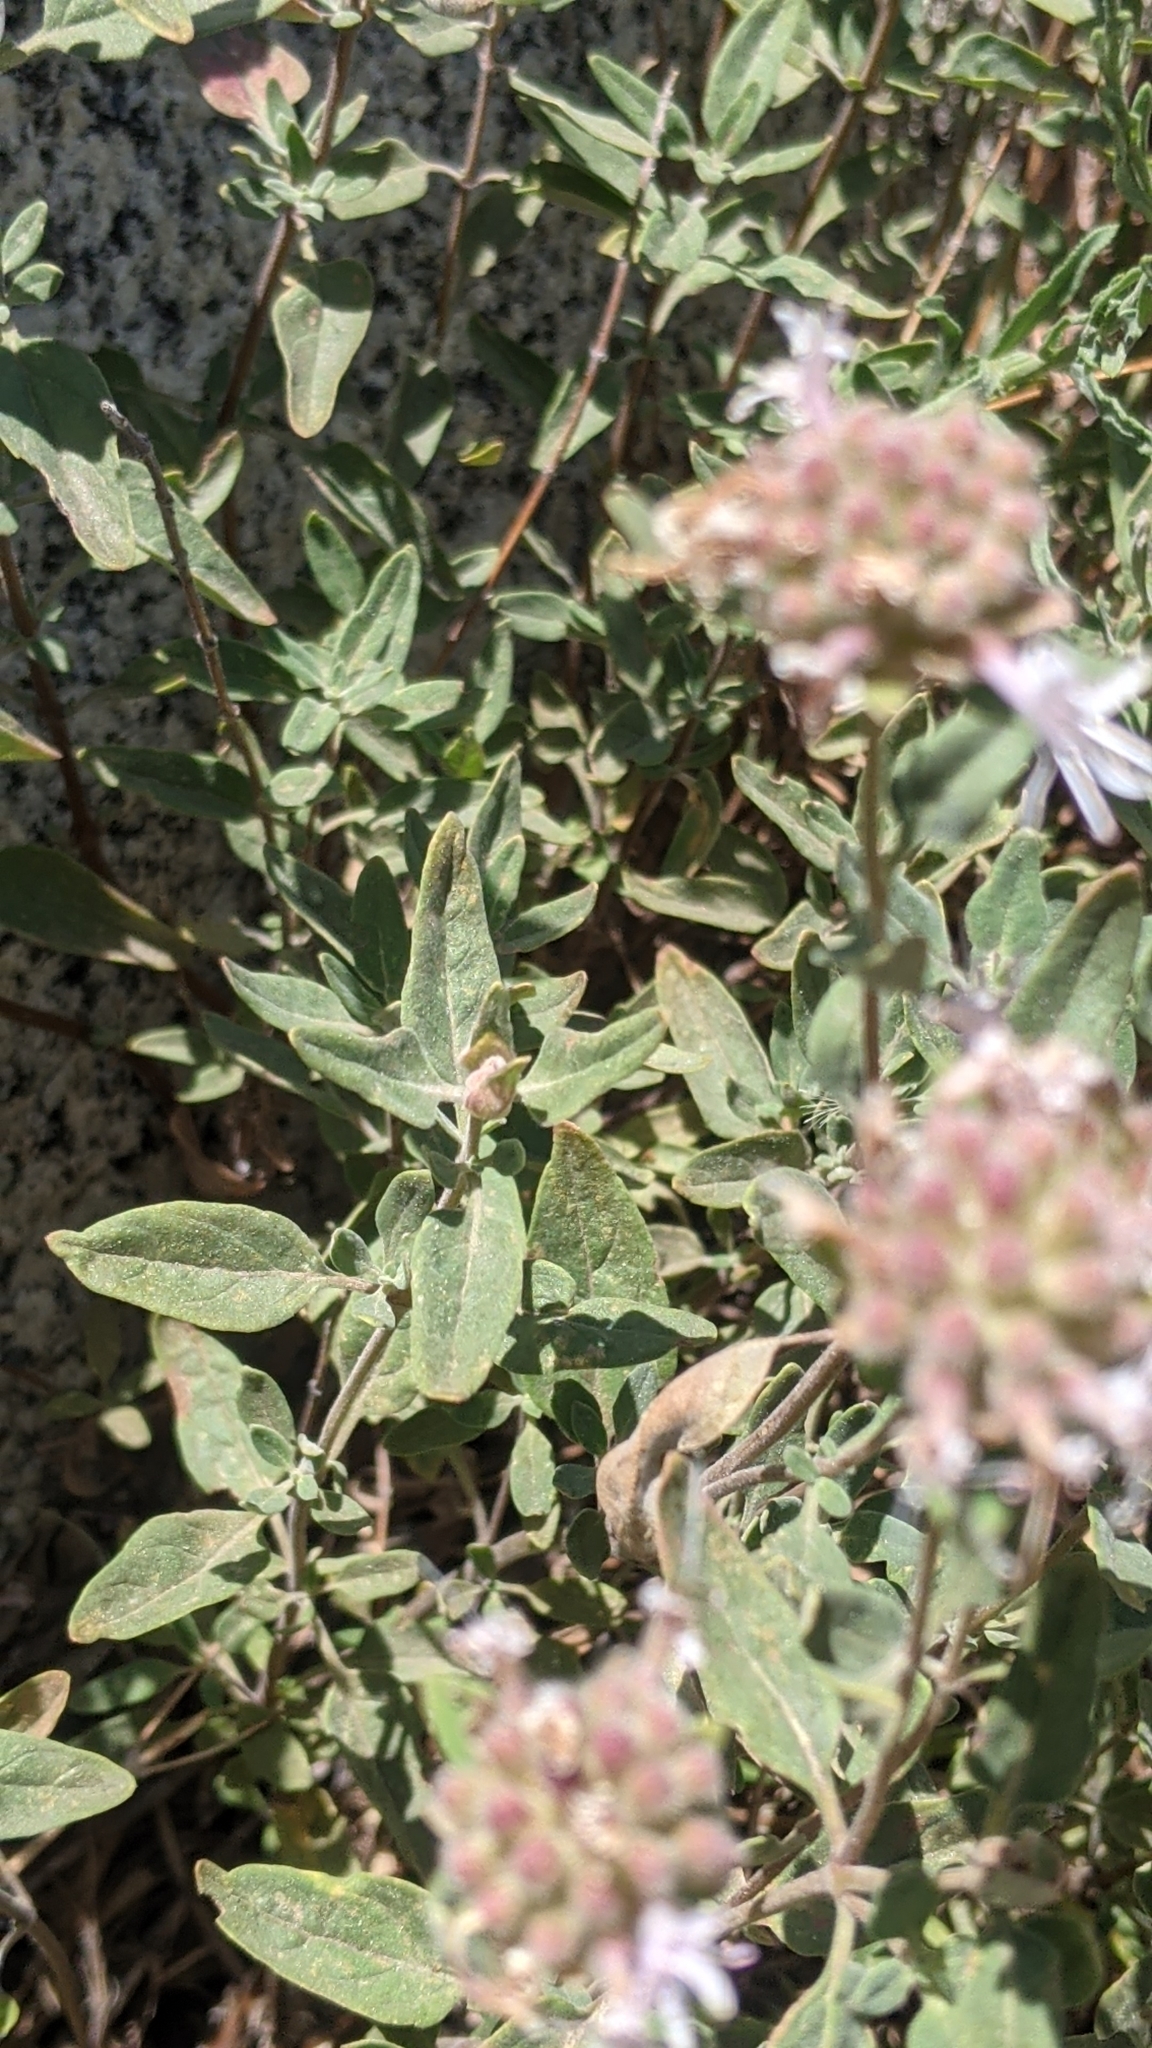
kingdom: Plantae
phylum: Tracheophyta
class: Magnoliopsida
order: Lamiales
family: Lamiaceae
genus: Monardella
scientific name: Monardella odoratissima
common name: Pacific monardella
